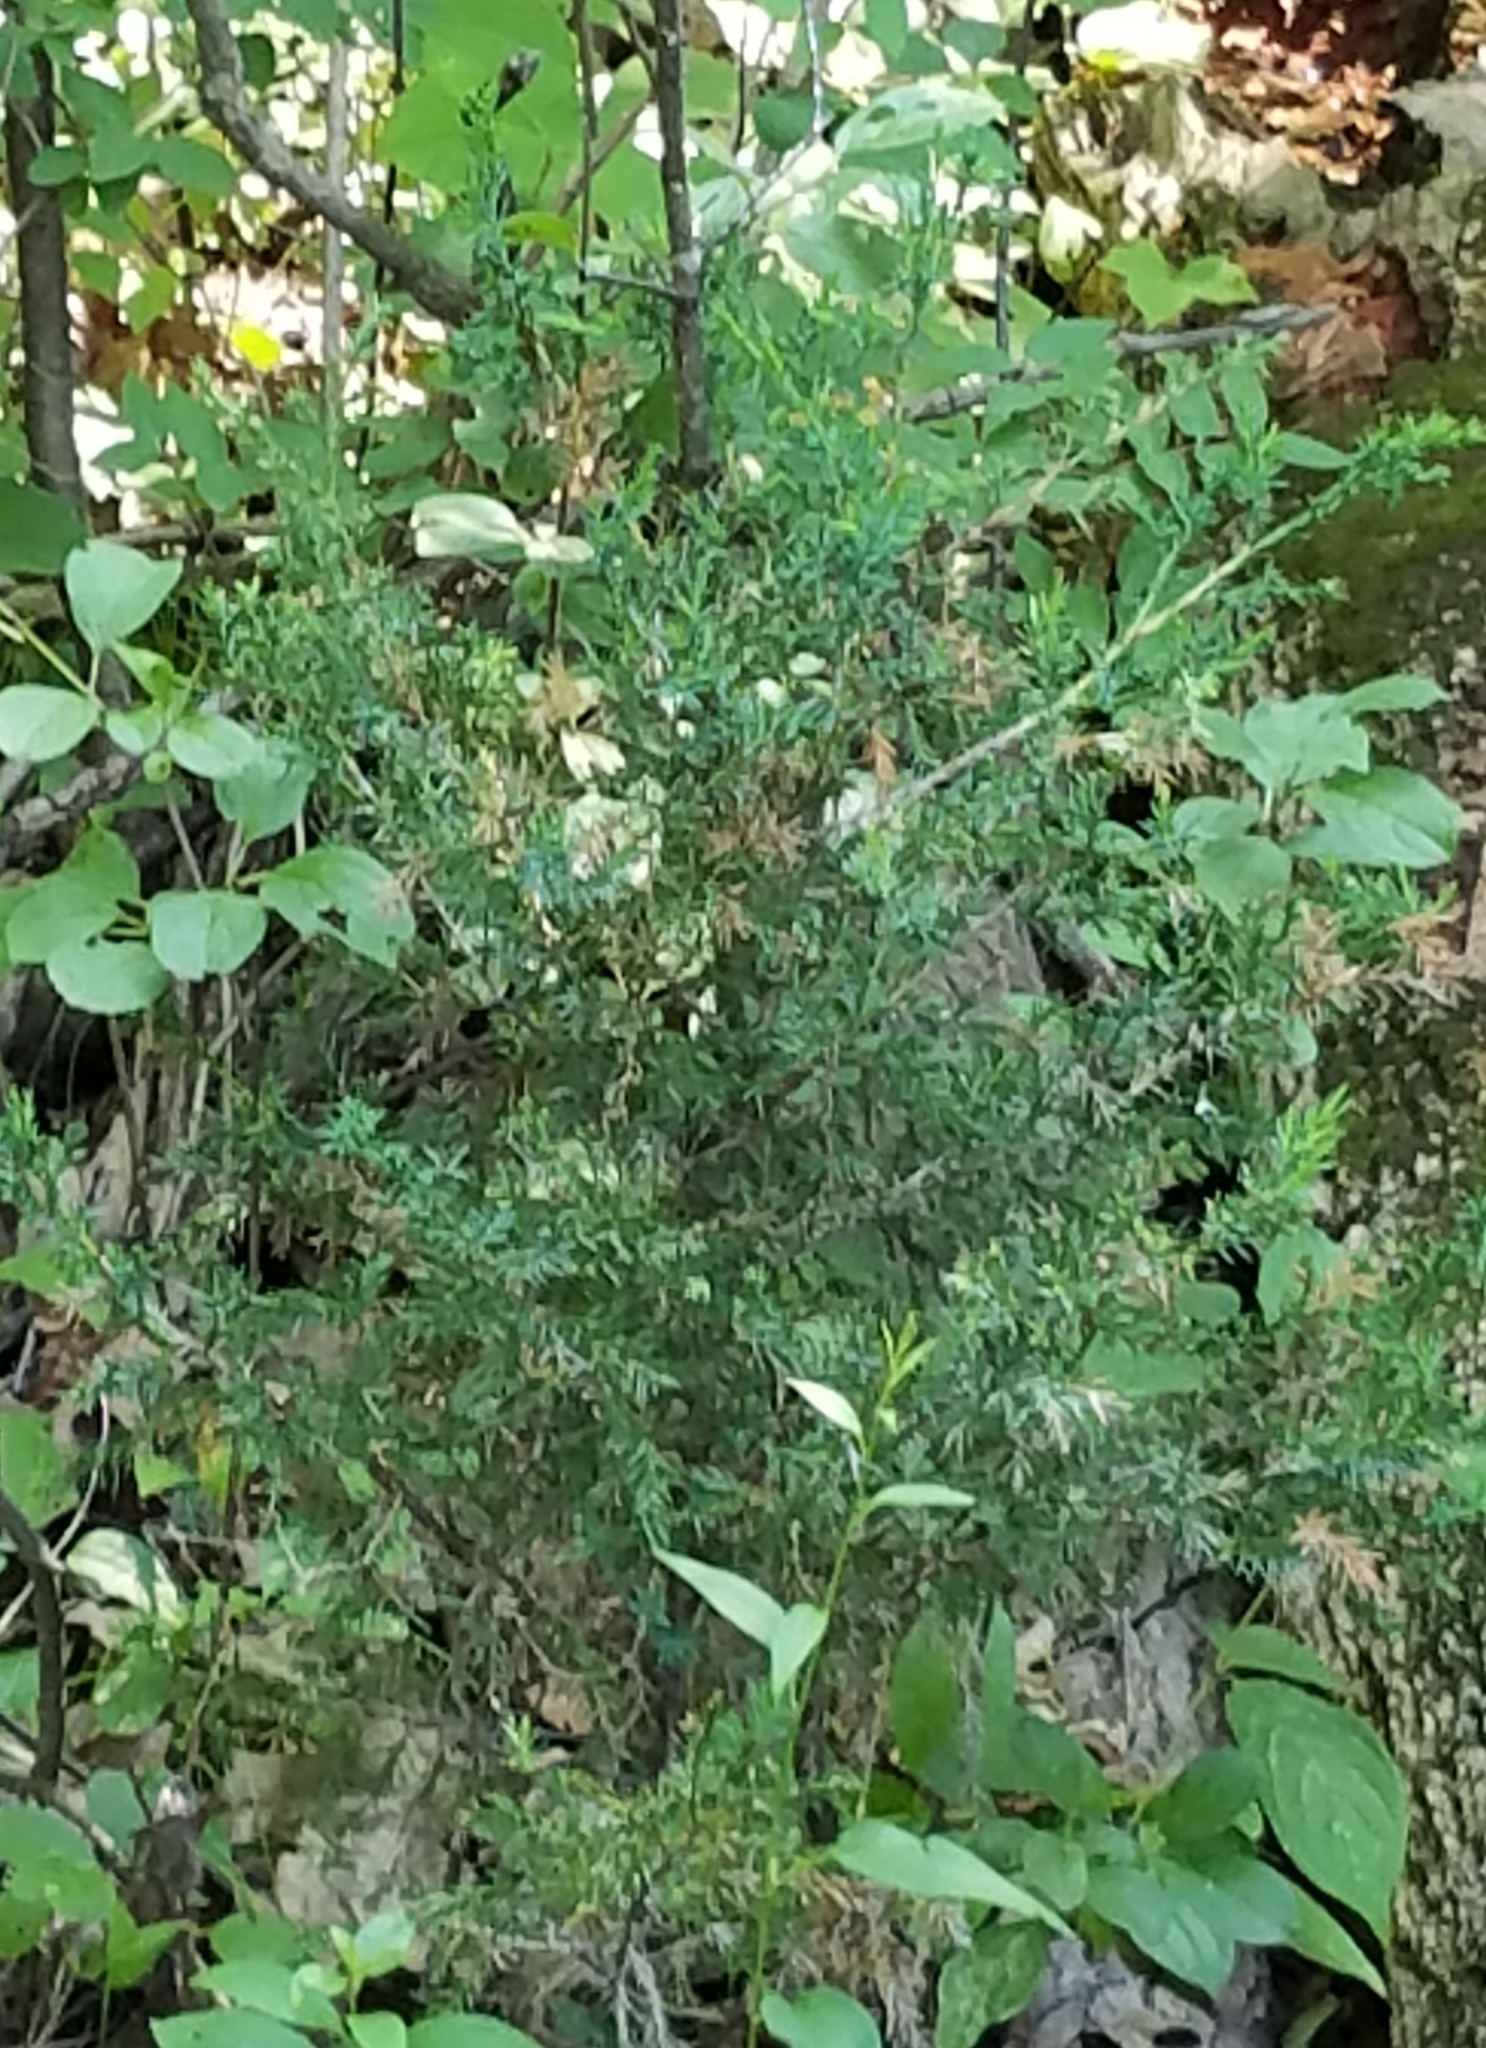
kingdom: Plantae
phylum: Tracheophyta
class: Pinopsida
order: Pinales
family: Cupressaceae
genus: Juniperus
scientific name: Juniperus virginiana
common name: Red juniper
